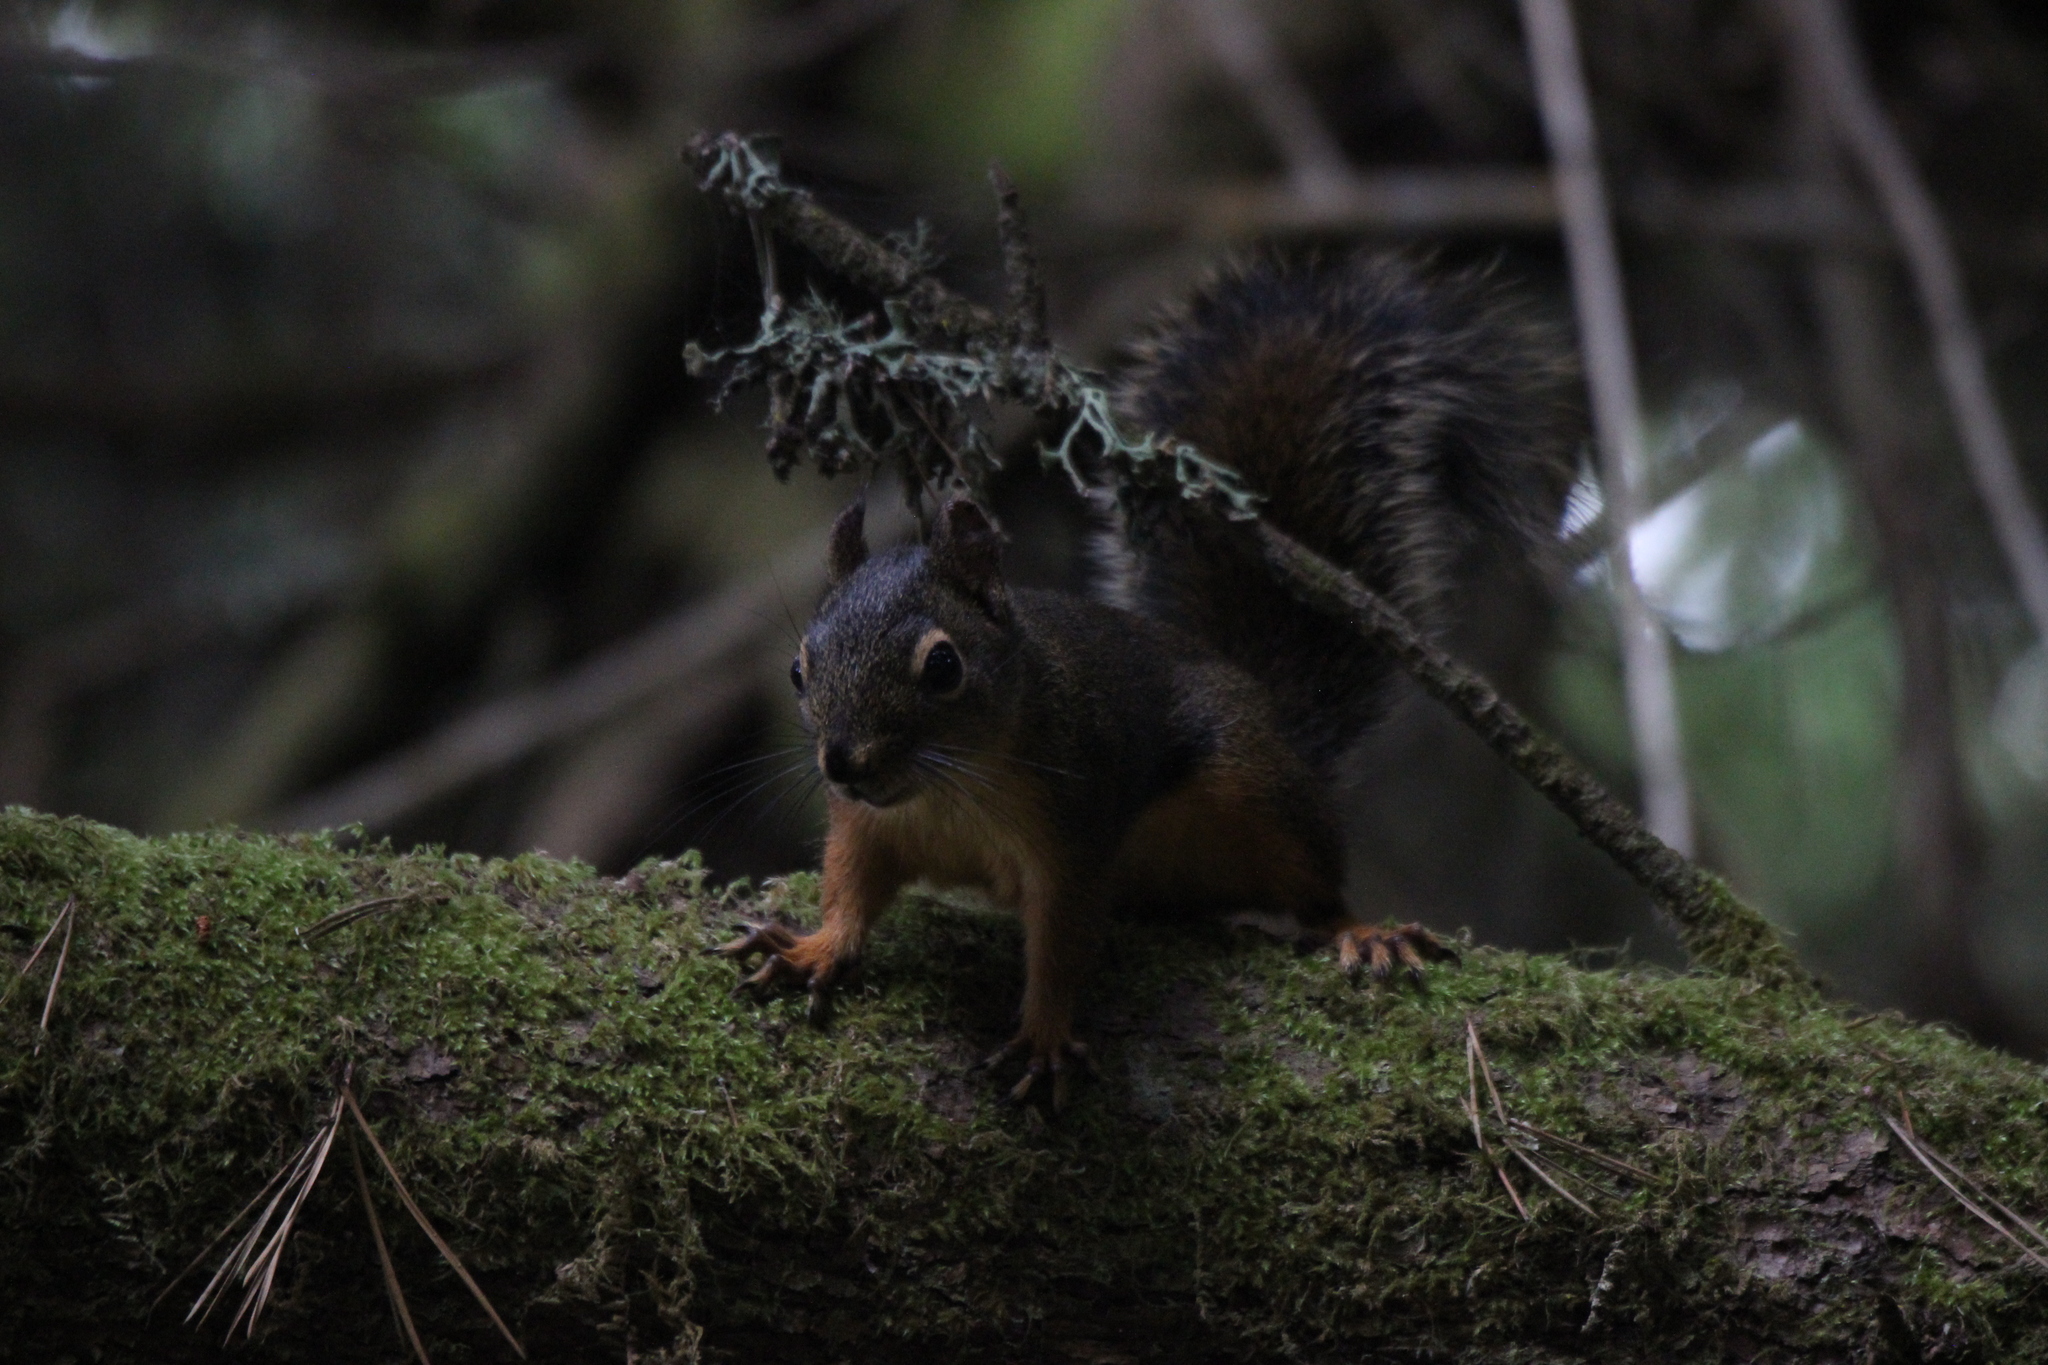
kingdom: Animalia
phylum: Chordata
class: Mammalia
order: Rodentia
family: Sciuridae
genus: Tamiasciurus
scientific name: Tamiasciurus douglasii
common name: Douglas's squirrel
